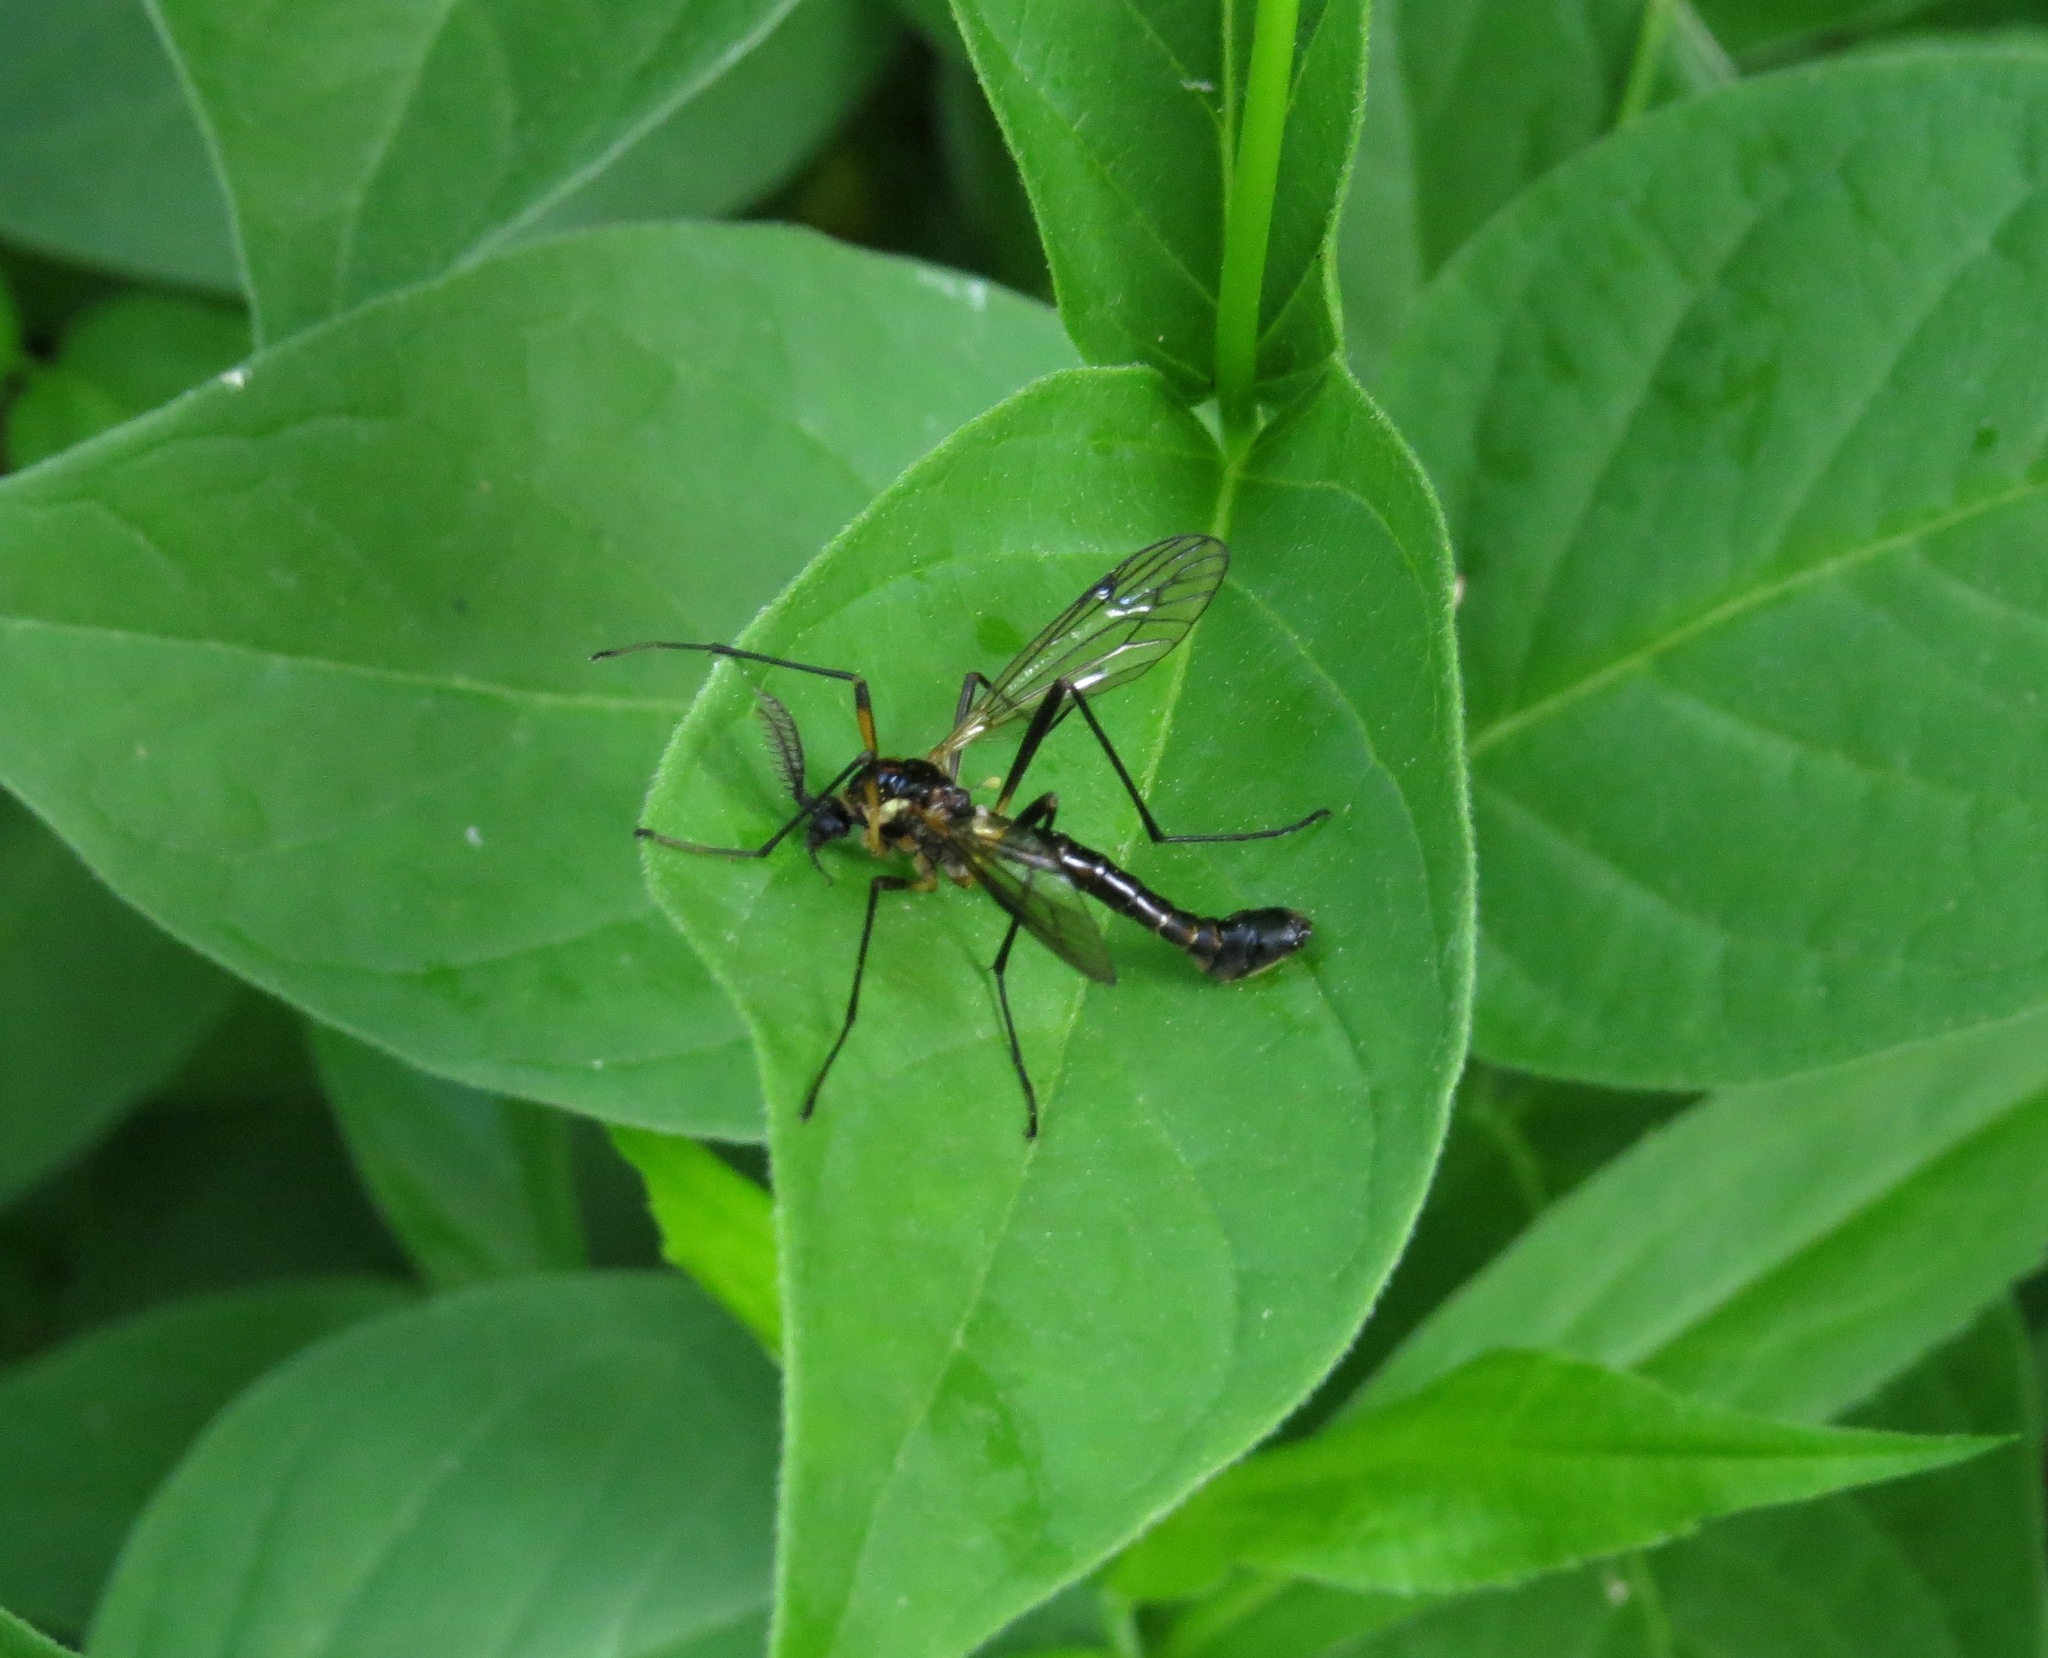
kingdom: Animalia
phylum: Arthropoda
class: Insecta
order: Diptera
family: Tipulidae
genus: Tanyptera
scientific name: Tanyptera dorsalis
